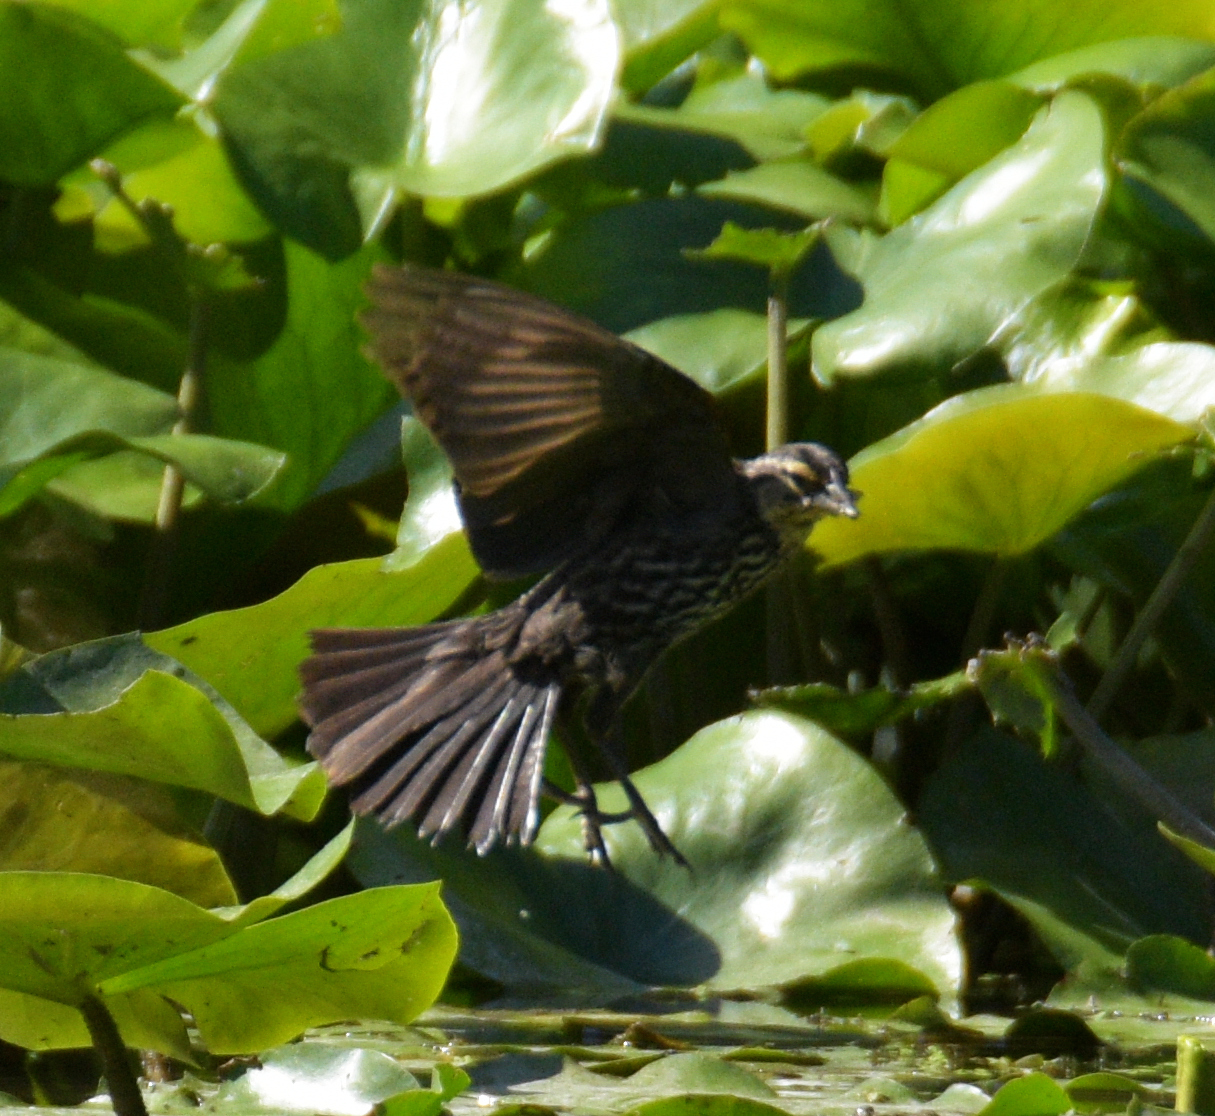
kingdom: Animalia
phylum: Chordata
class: Aves
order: Passeriformes
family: Icteridae
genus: Agelaius
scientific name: Agelaius phoeniceus
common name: Red-winged blackbird
